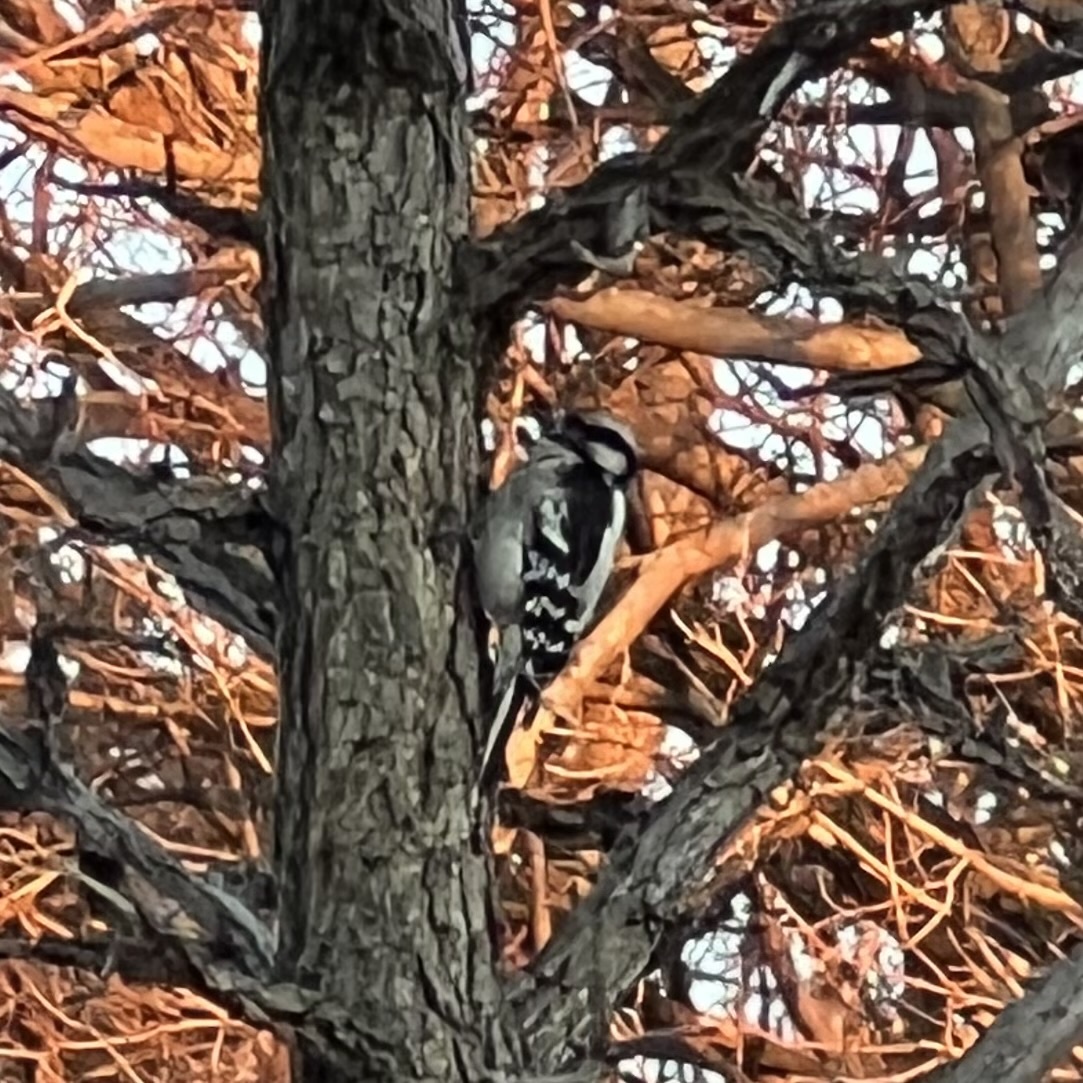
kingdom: Animalia
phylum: Chordata
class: Aves
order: Piciformes
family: Picidae
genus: Dryobates
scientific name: Dryobates pubescens
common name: Downy woodpecker
